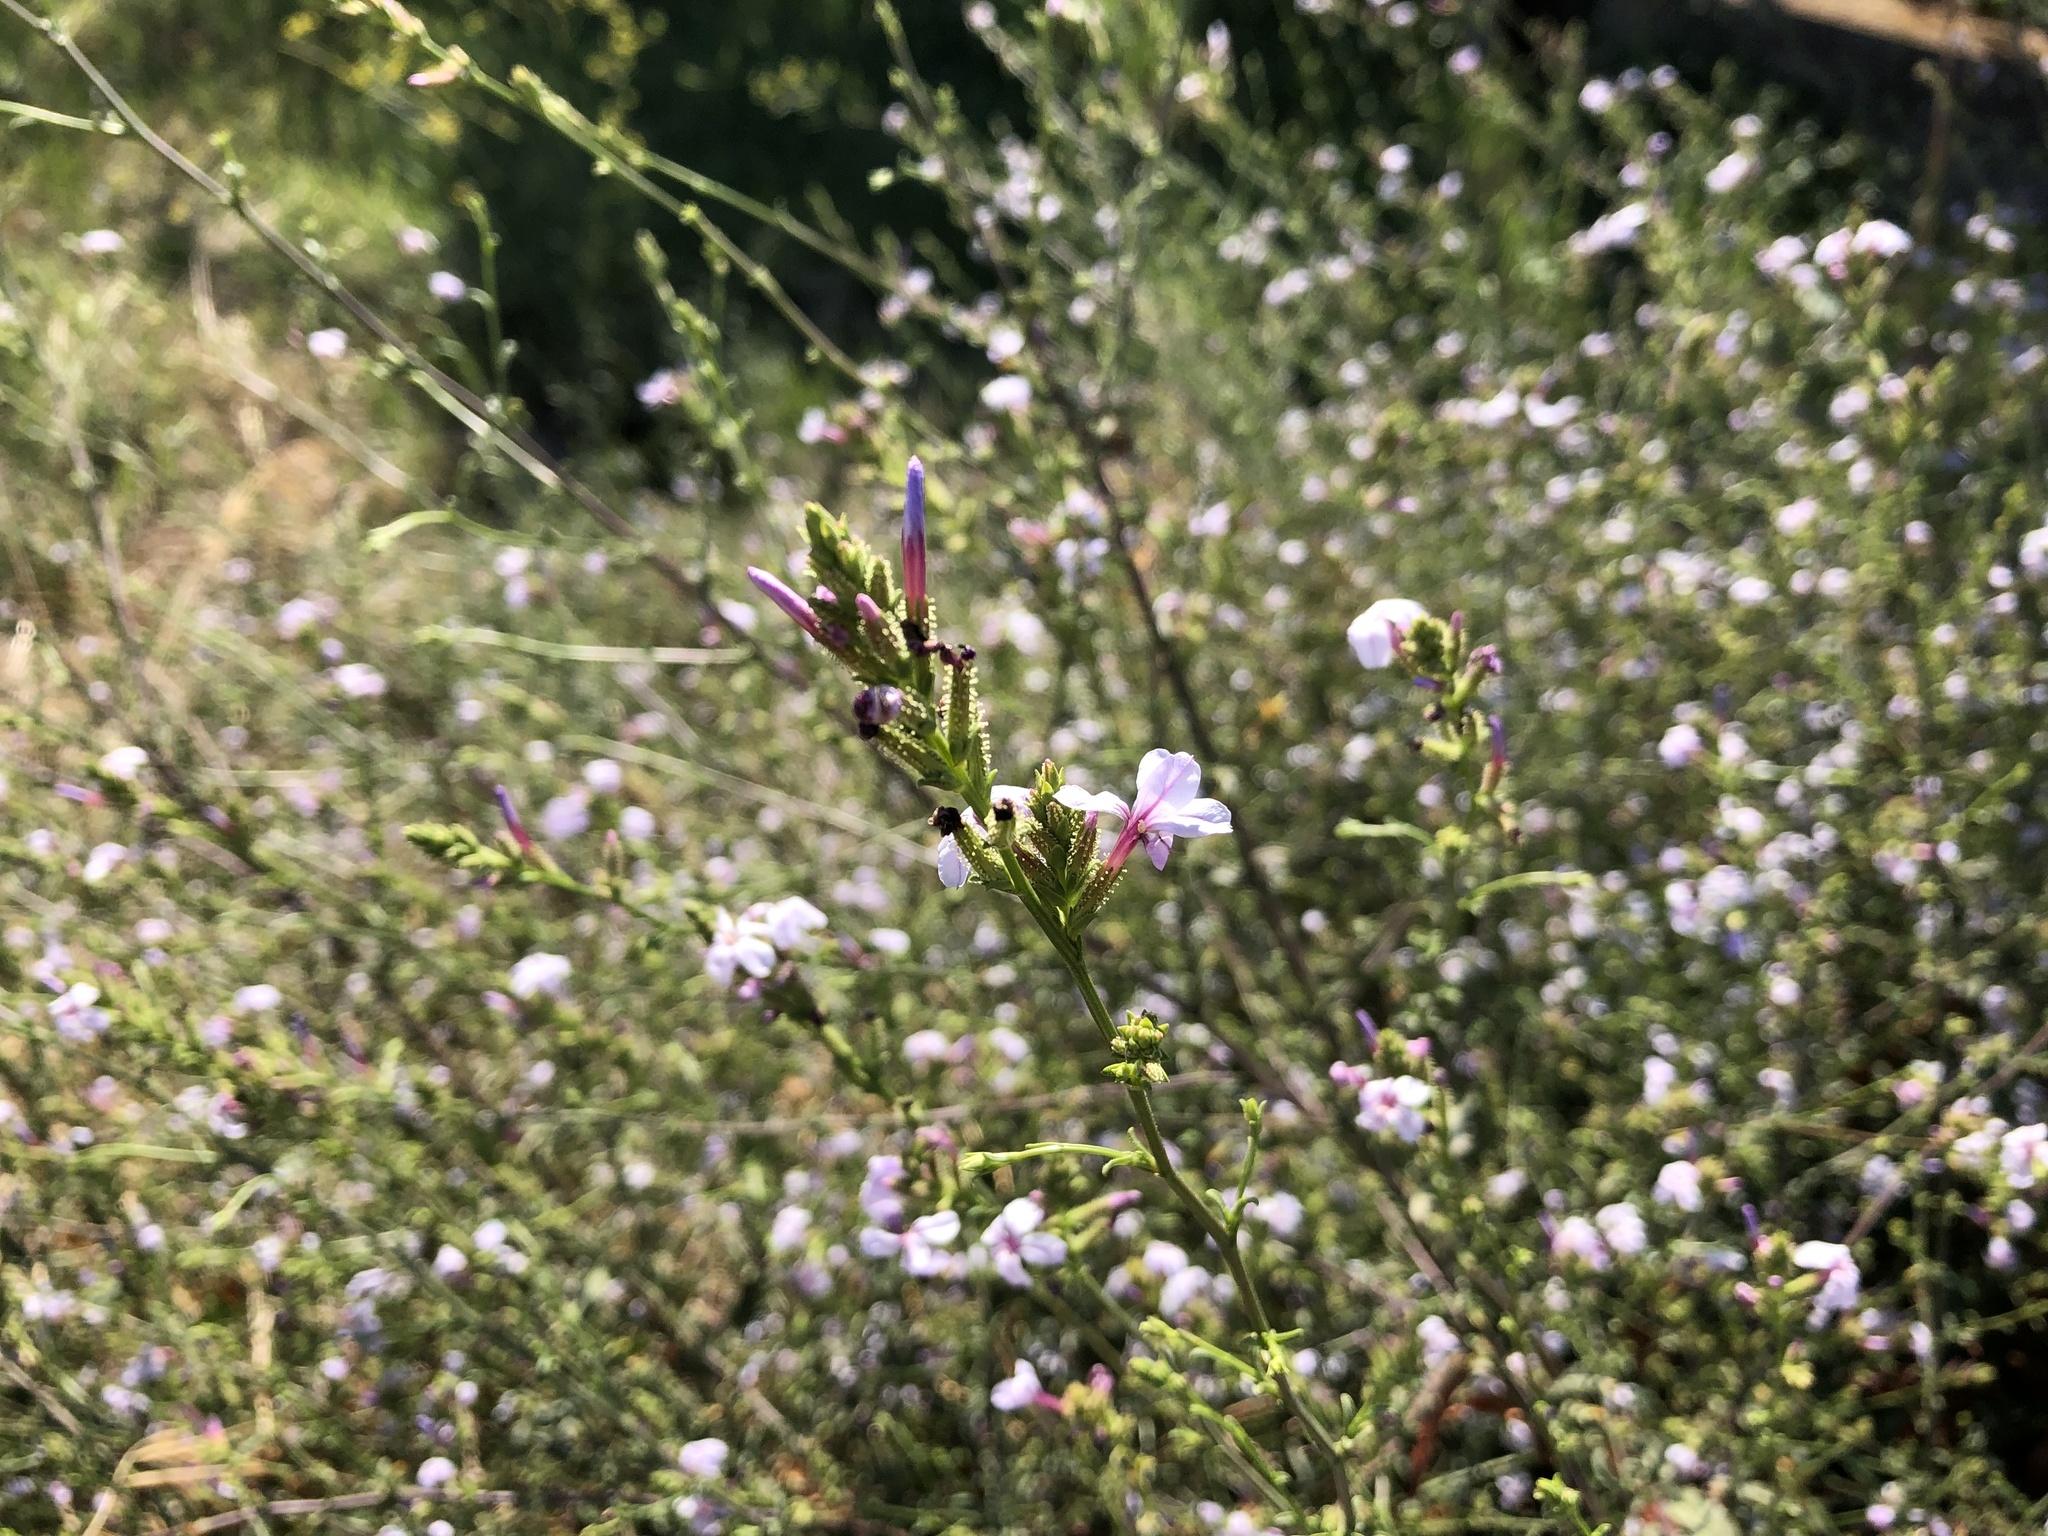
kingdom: Plantae
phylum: Tracheophyta
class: Magnoliopsida
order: Caryophyllales
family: Plumbaginaceae
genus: Plumbago
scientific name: Plumbago europaea
